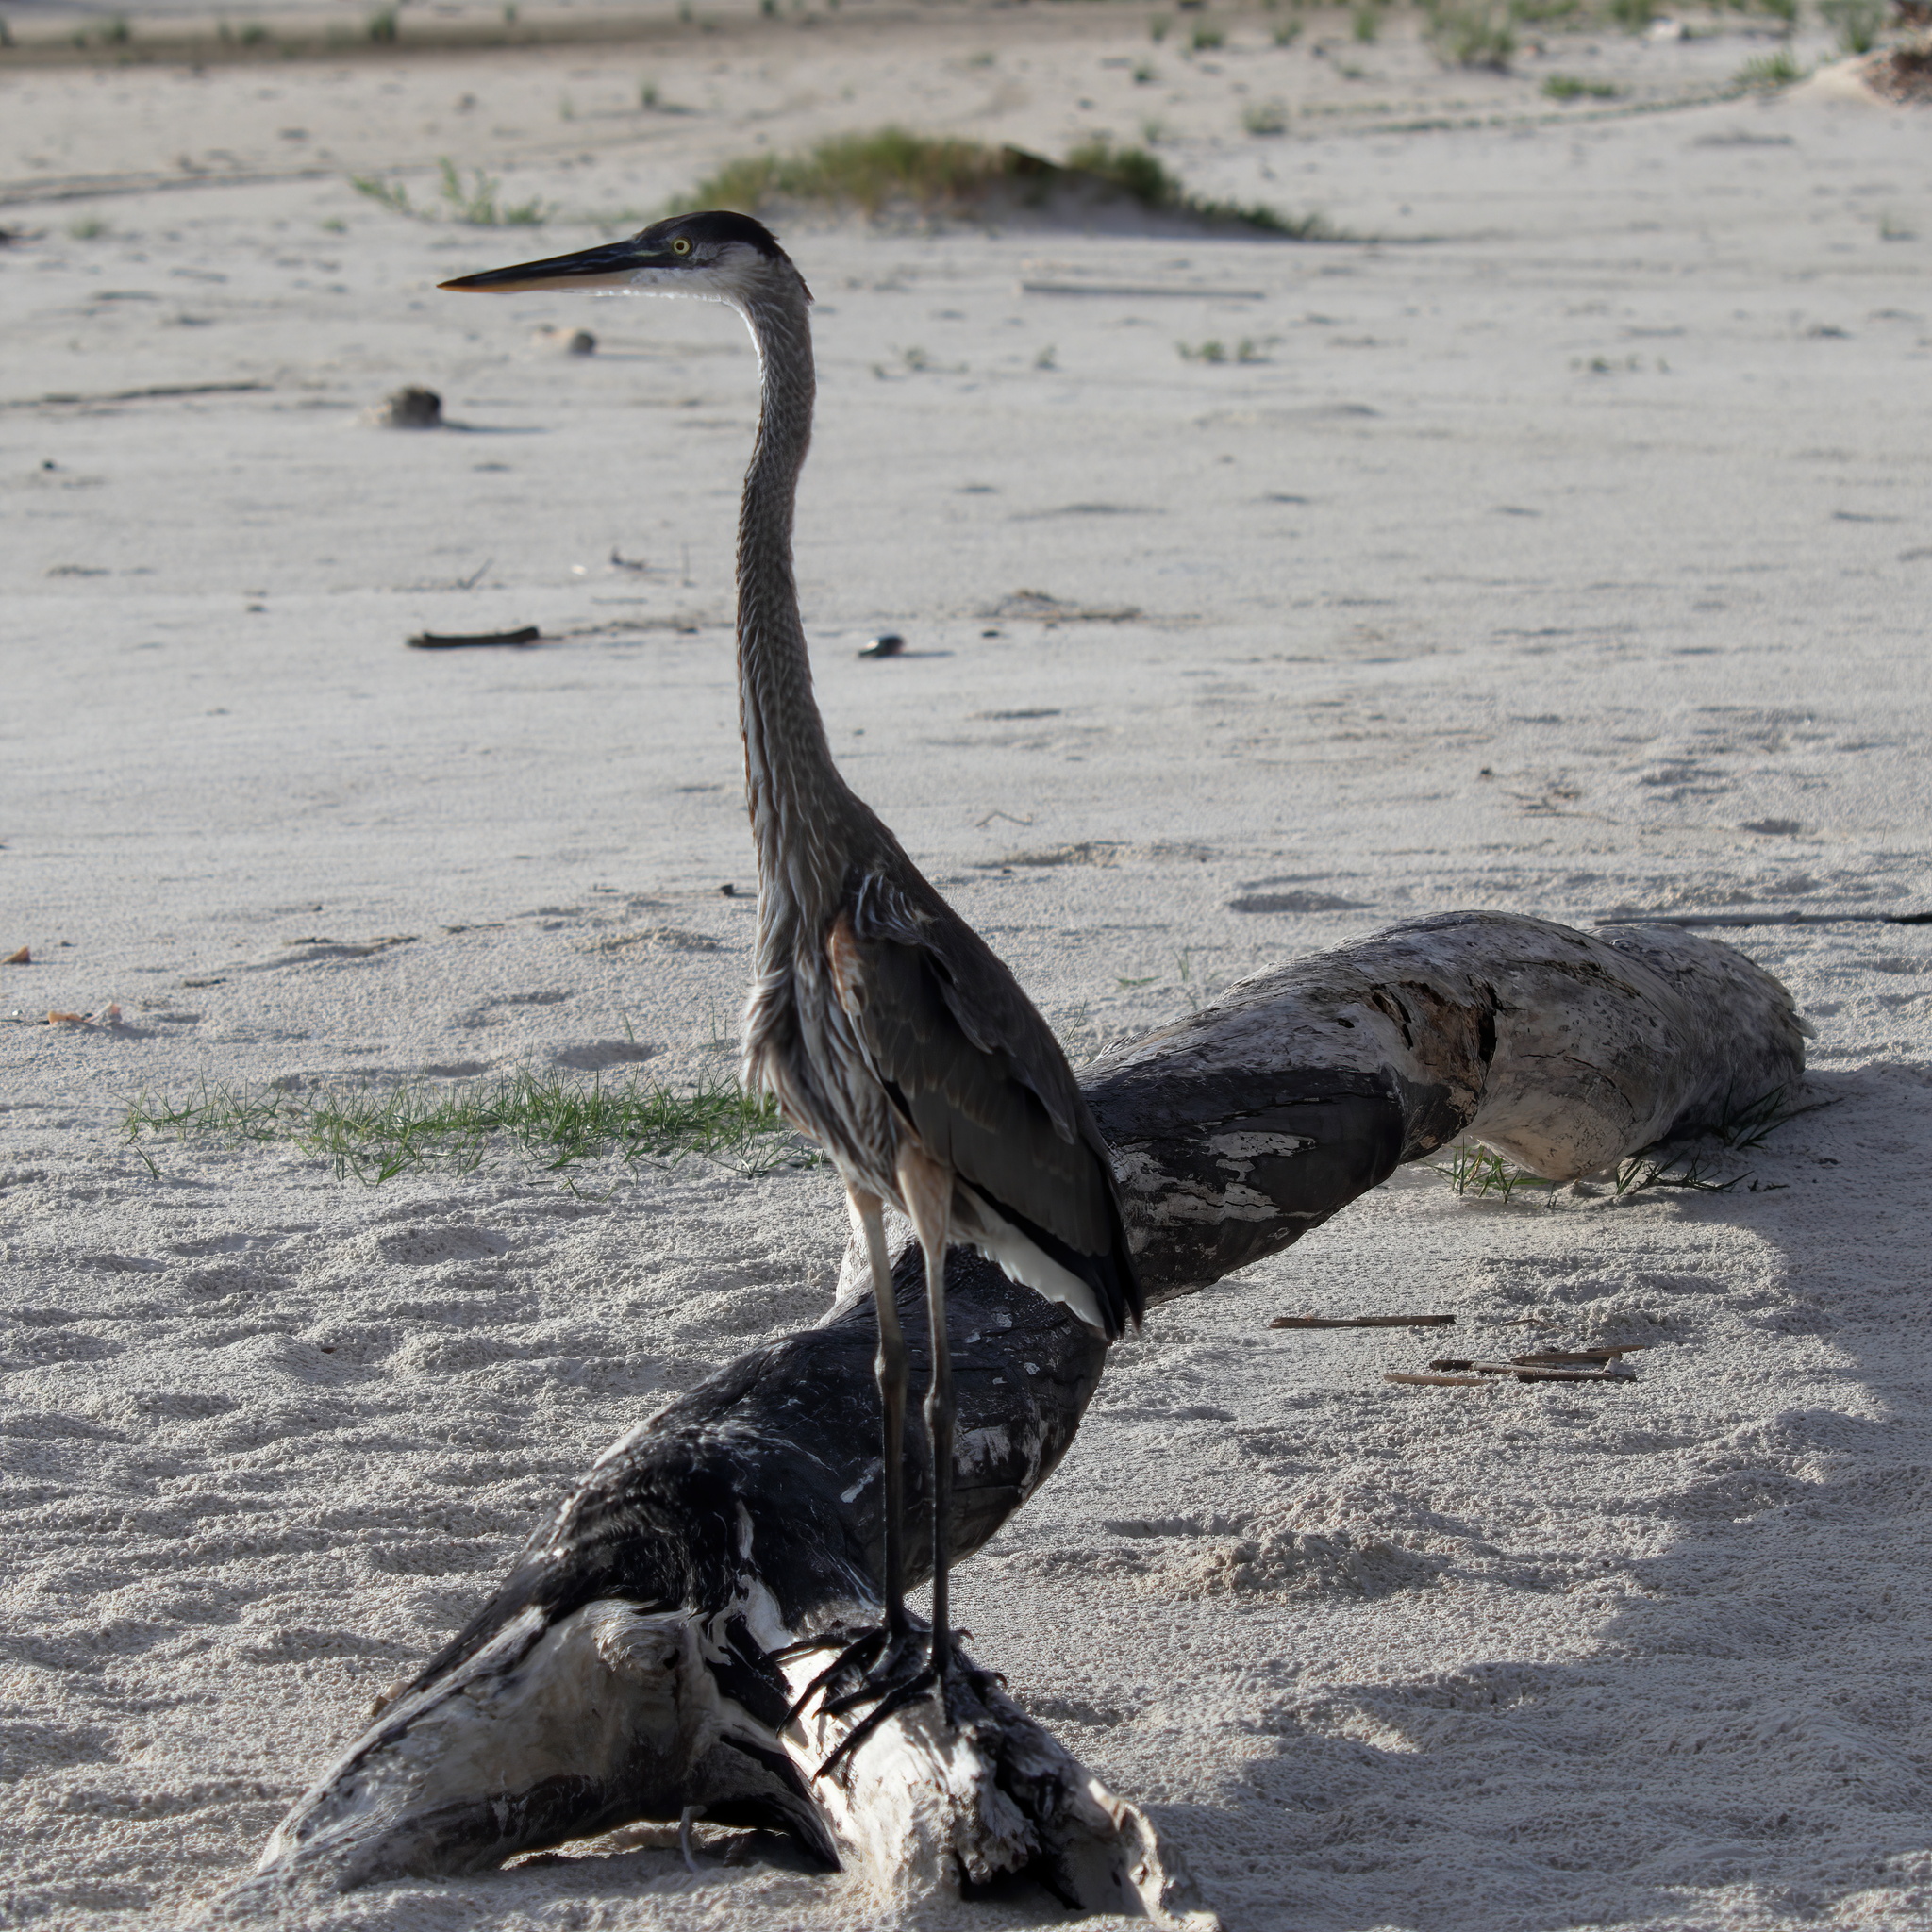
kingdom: Animalia
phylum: Chordata
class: Aves
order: Pelecaniformes
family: Ardeidae
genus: Ardea
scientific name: Ardea herodias
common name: Great blue heron
